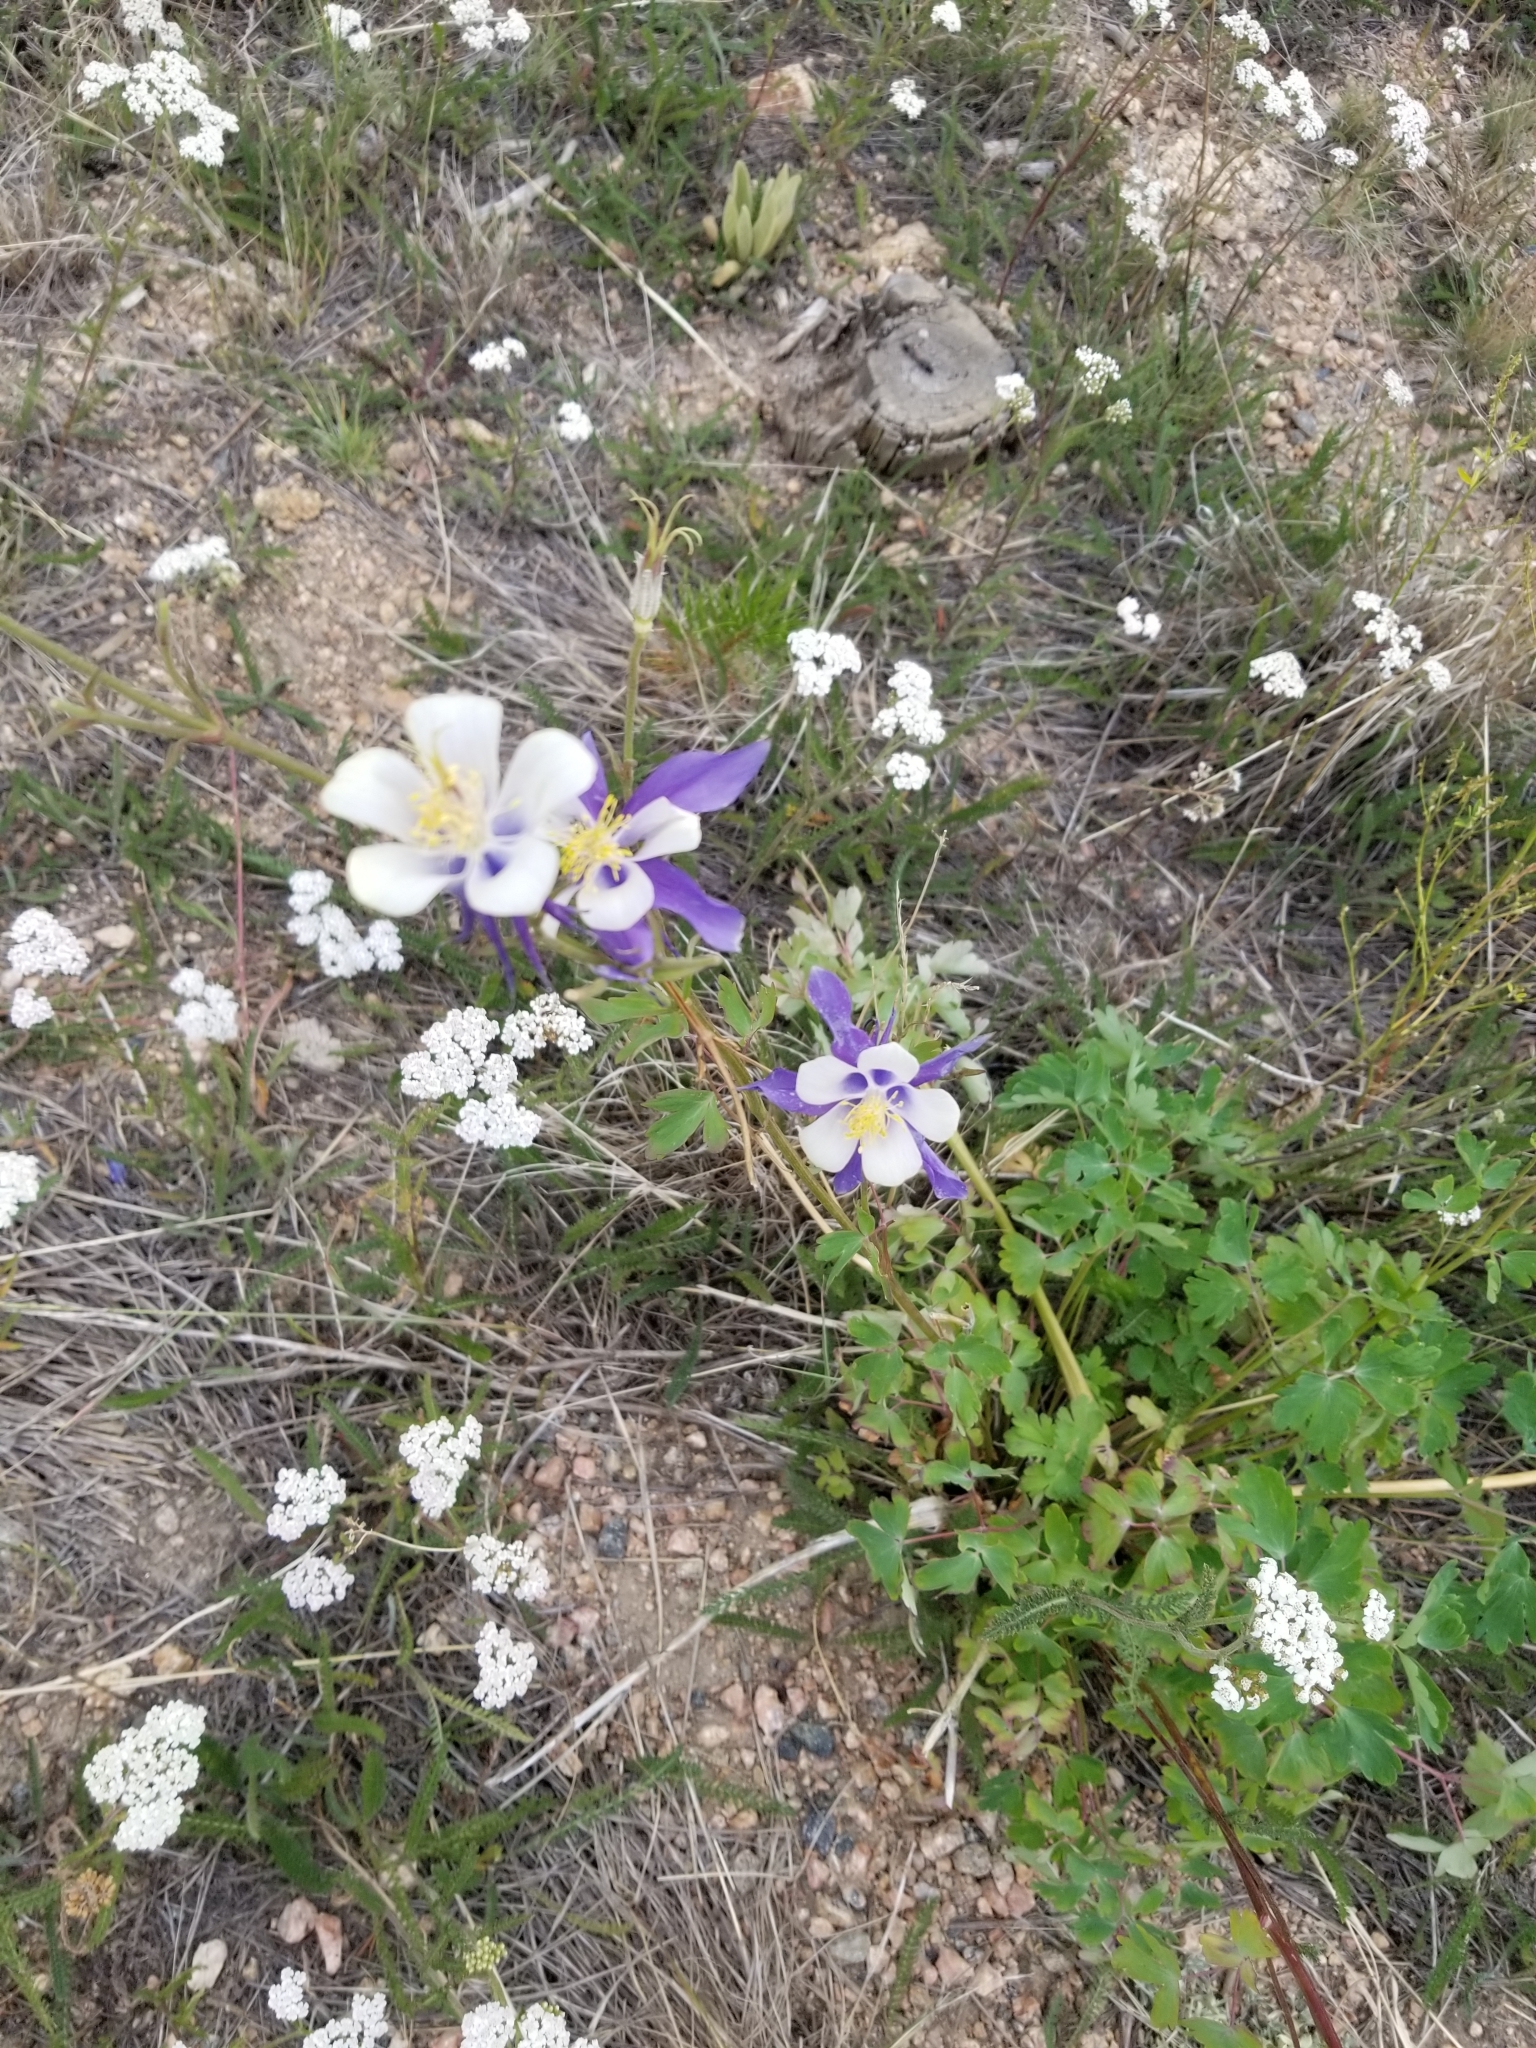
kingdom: Plantae
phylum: Tracheophyta
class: Magnoliopsida
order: Ranunculales
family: Ranunculaceae
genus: Aquilegia
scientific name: Aquilegia coerulea
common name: Rocky mountain columbine
